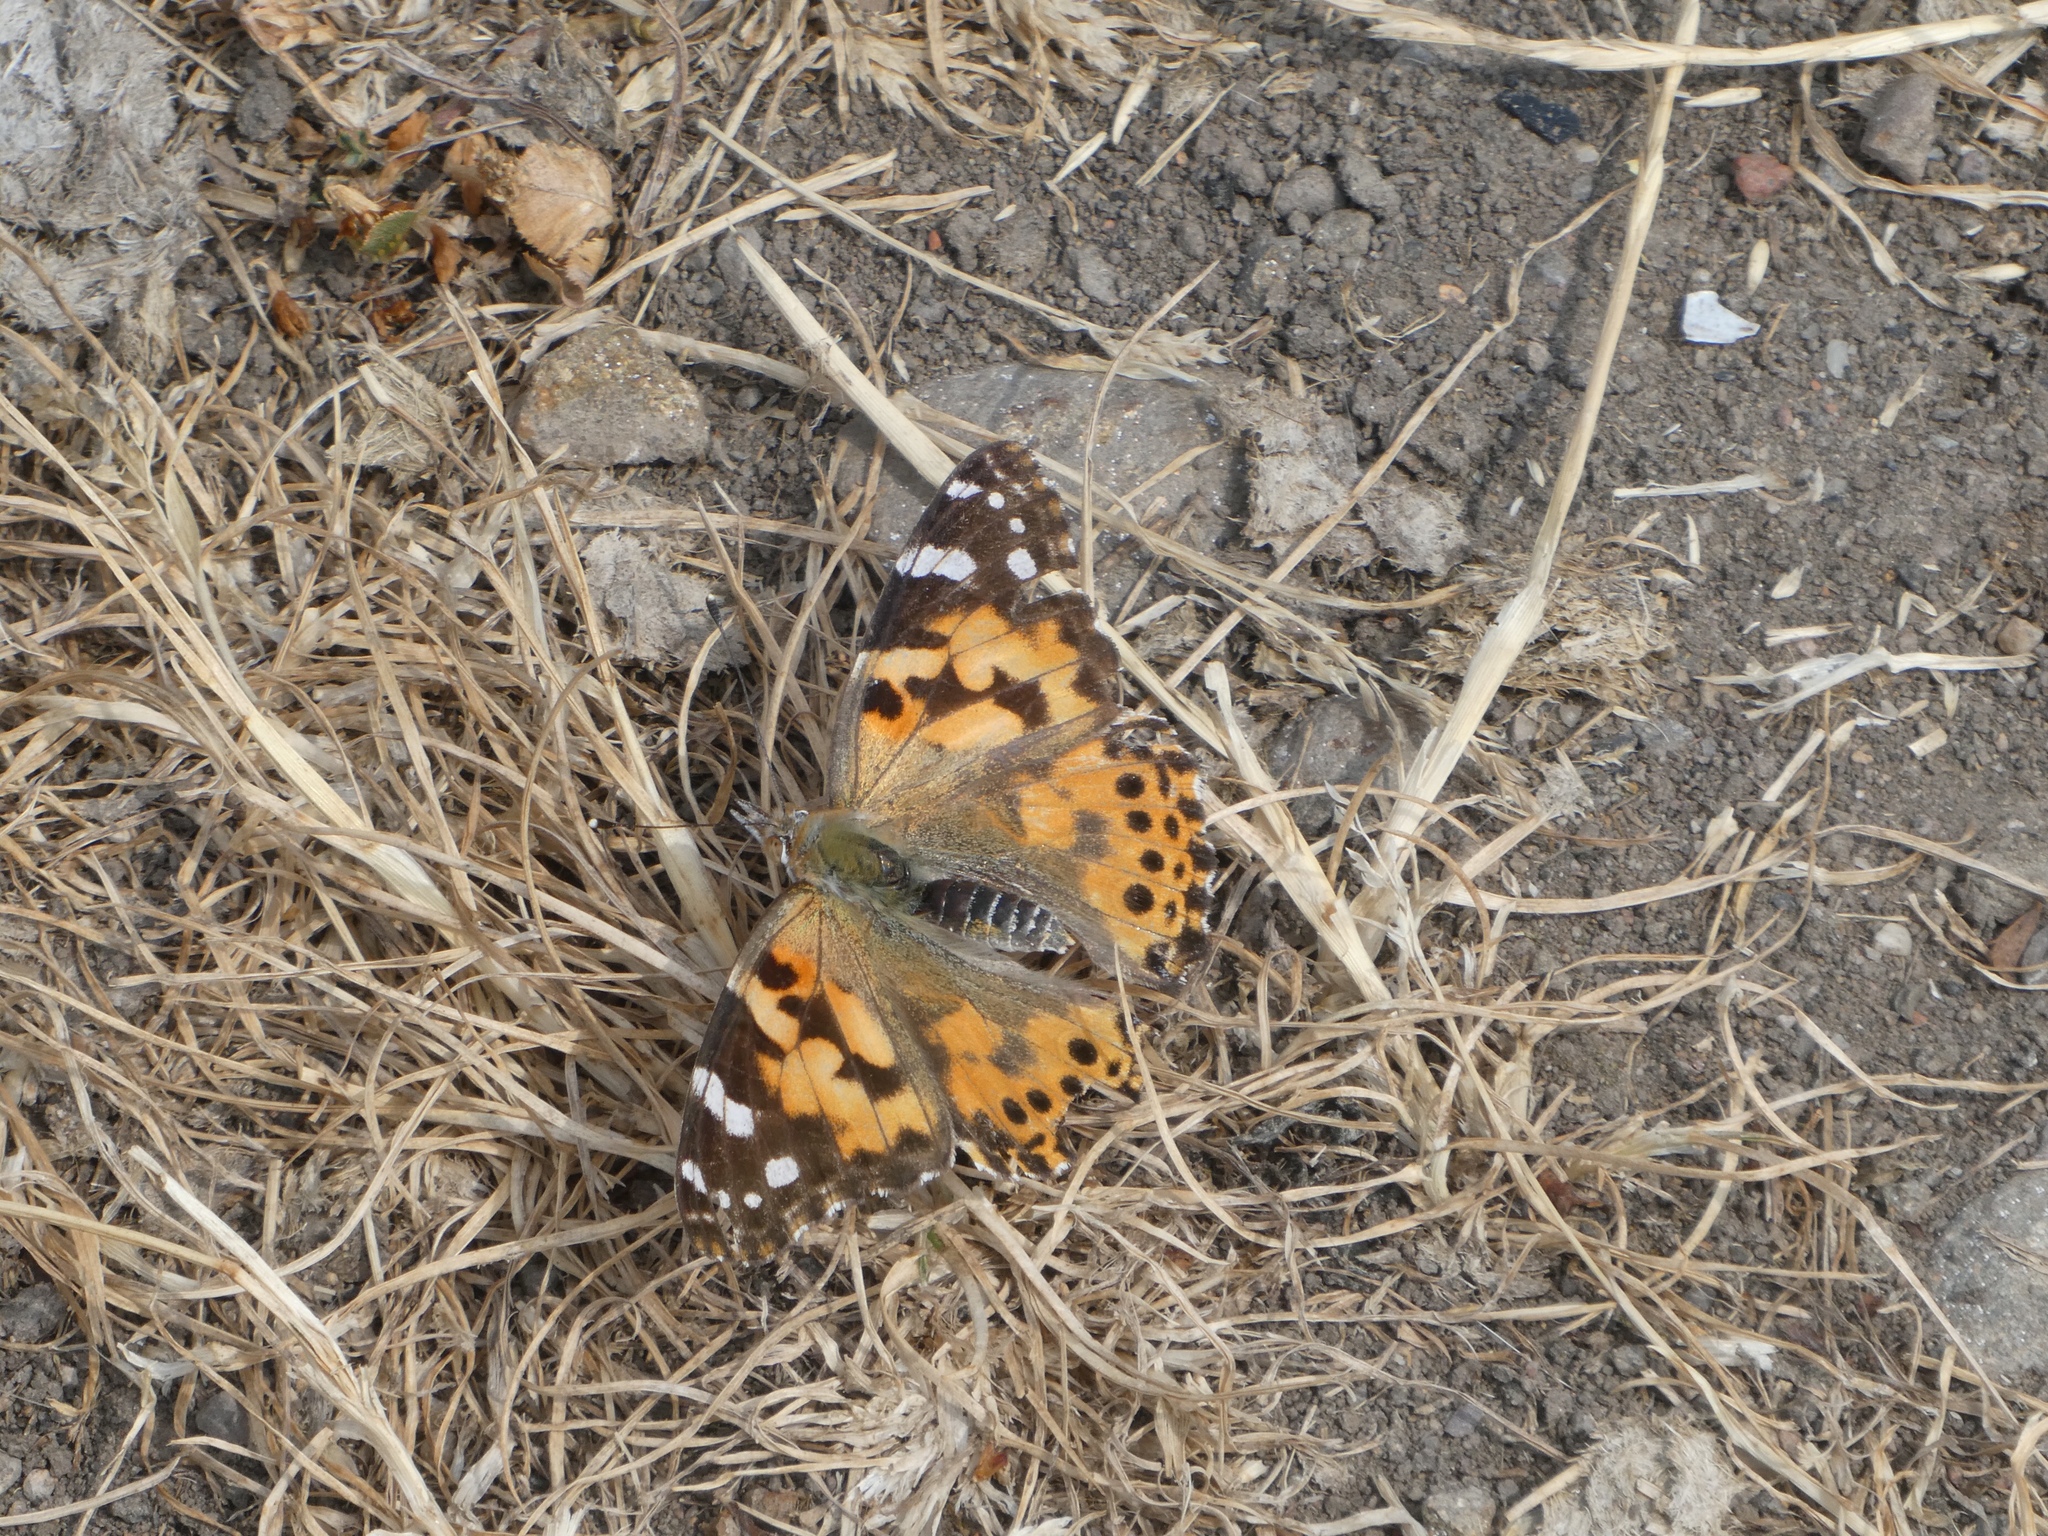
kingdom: Animalia
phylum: Arthropoda
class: Insecta
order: Lepidoptera
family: Nymphalidae
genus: Vanessa
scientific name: Vanessa cardui
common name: Painted lady
